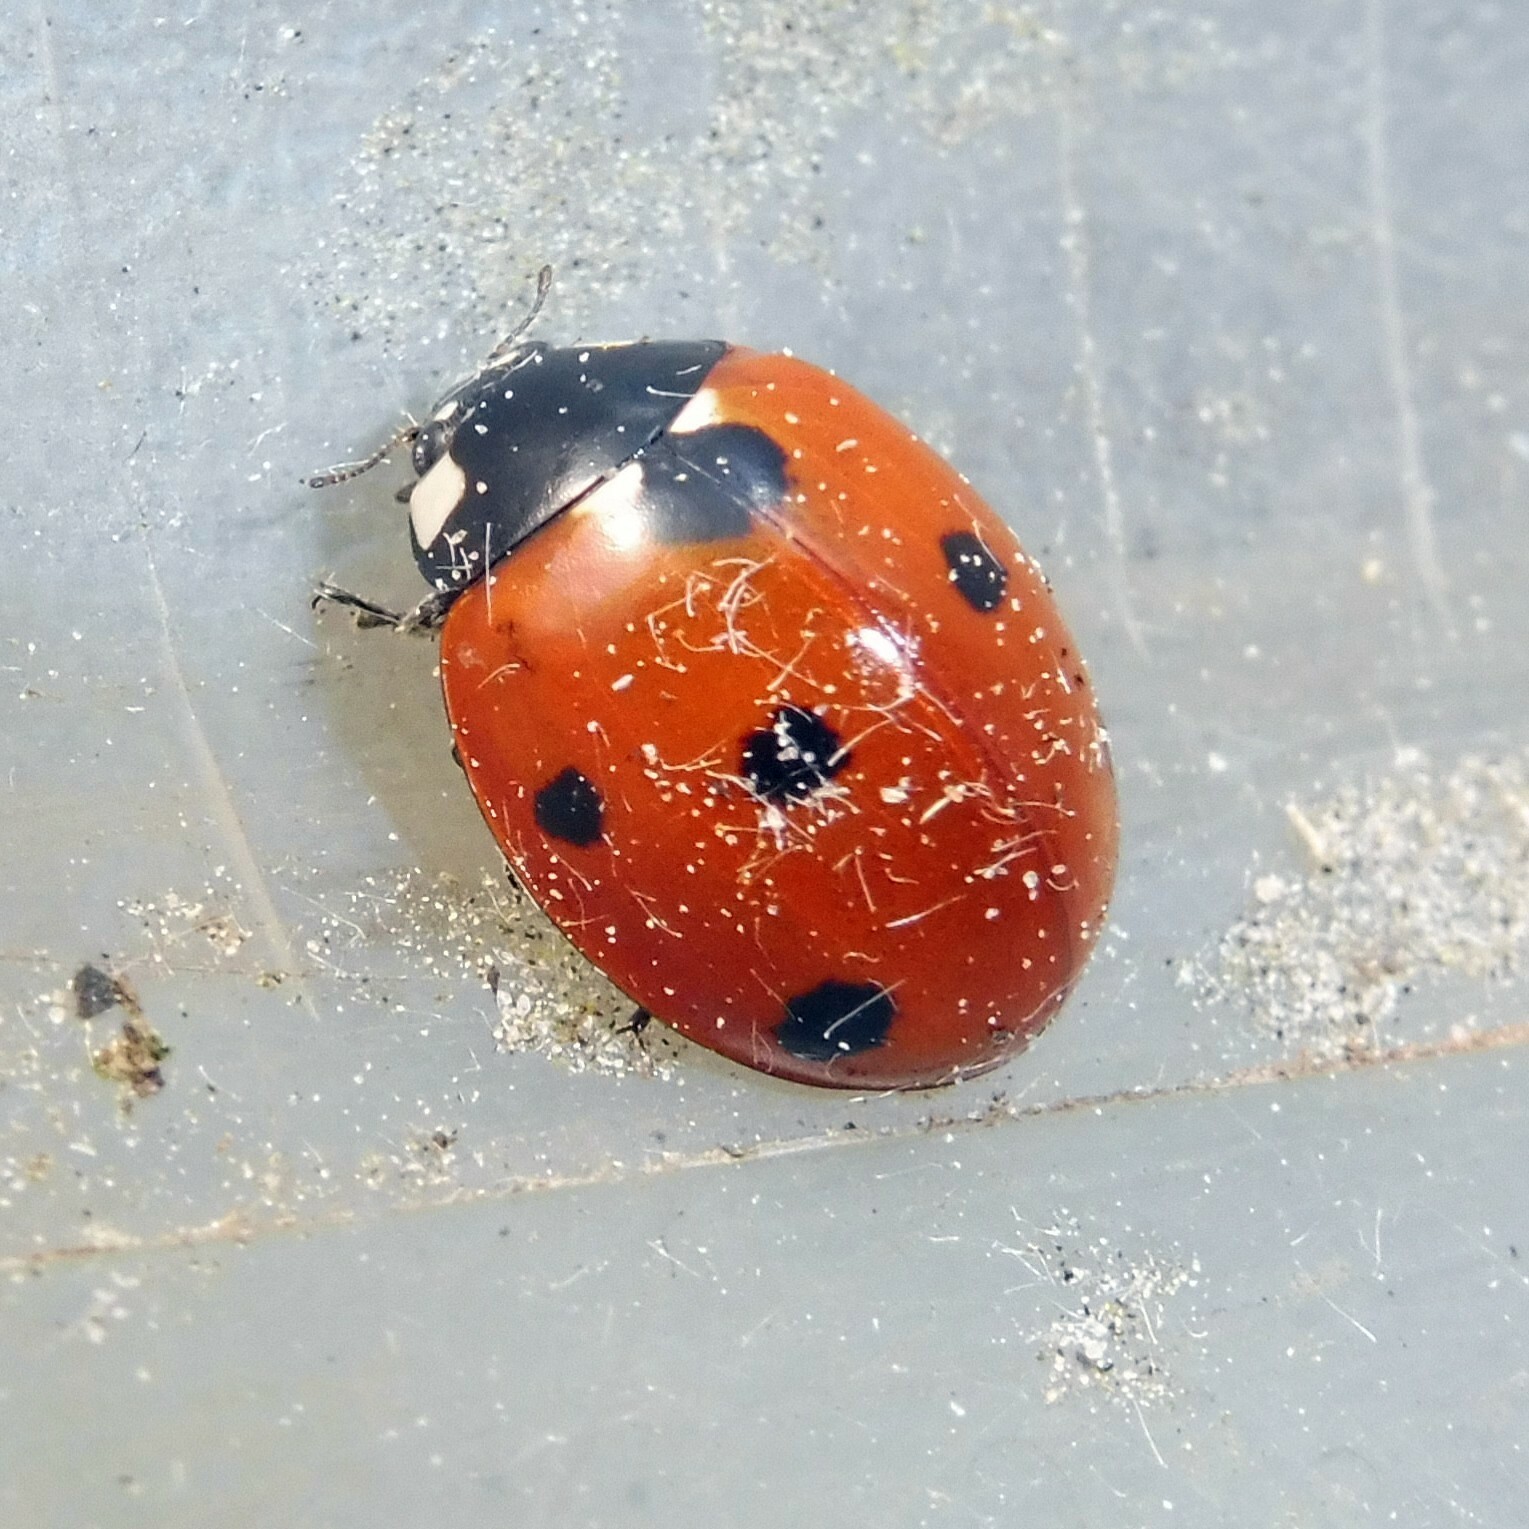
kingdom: Animalia
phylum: Arthropoda
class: Insecta
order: Coleoptera
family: Coccinellidae
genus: Coccinella
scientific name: Coccinella septempunctata
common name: Sevenspotted lady beetle
